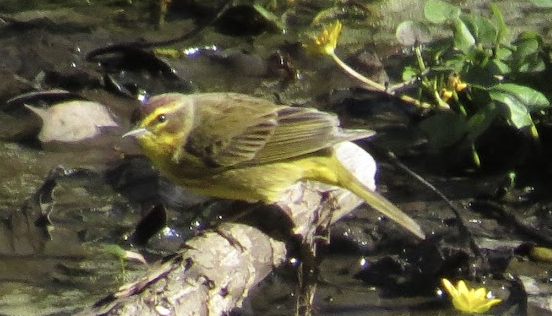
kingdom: Animalia
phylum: Chordata
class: Aves
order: Passeriformes
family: Parulidae
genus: Setophaga
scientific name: Setophaga palmarum
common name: Palm warbler
